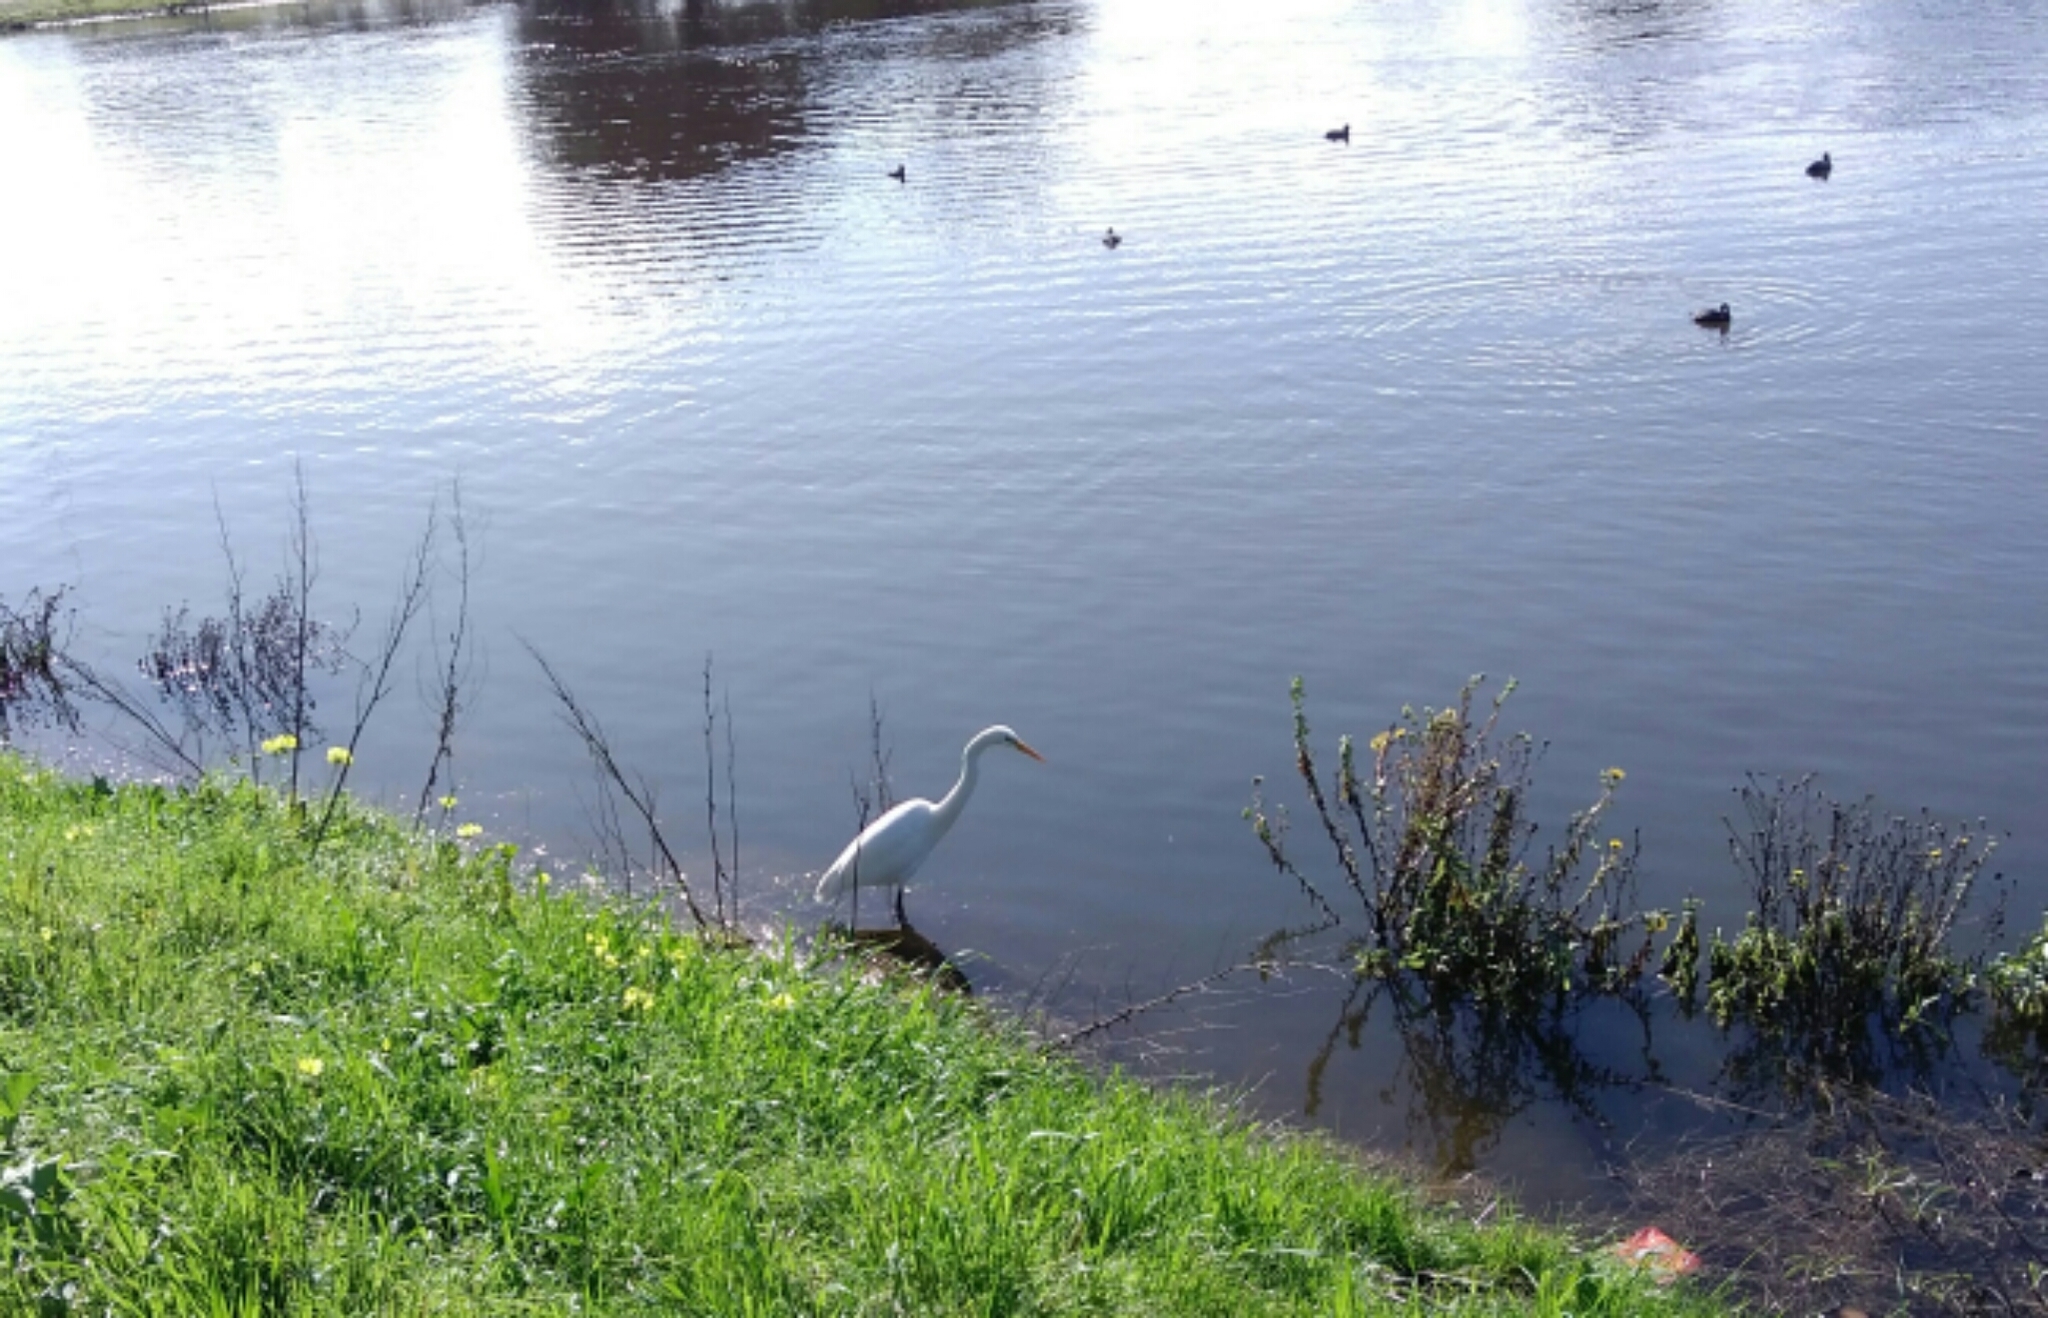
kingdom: Animalia
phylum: Chordata
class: Aves
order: Pelecaniformes
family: Ardeidae
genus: Ardea
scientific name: Ardea alba
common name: Great egret
